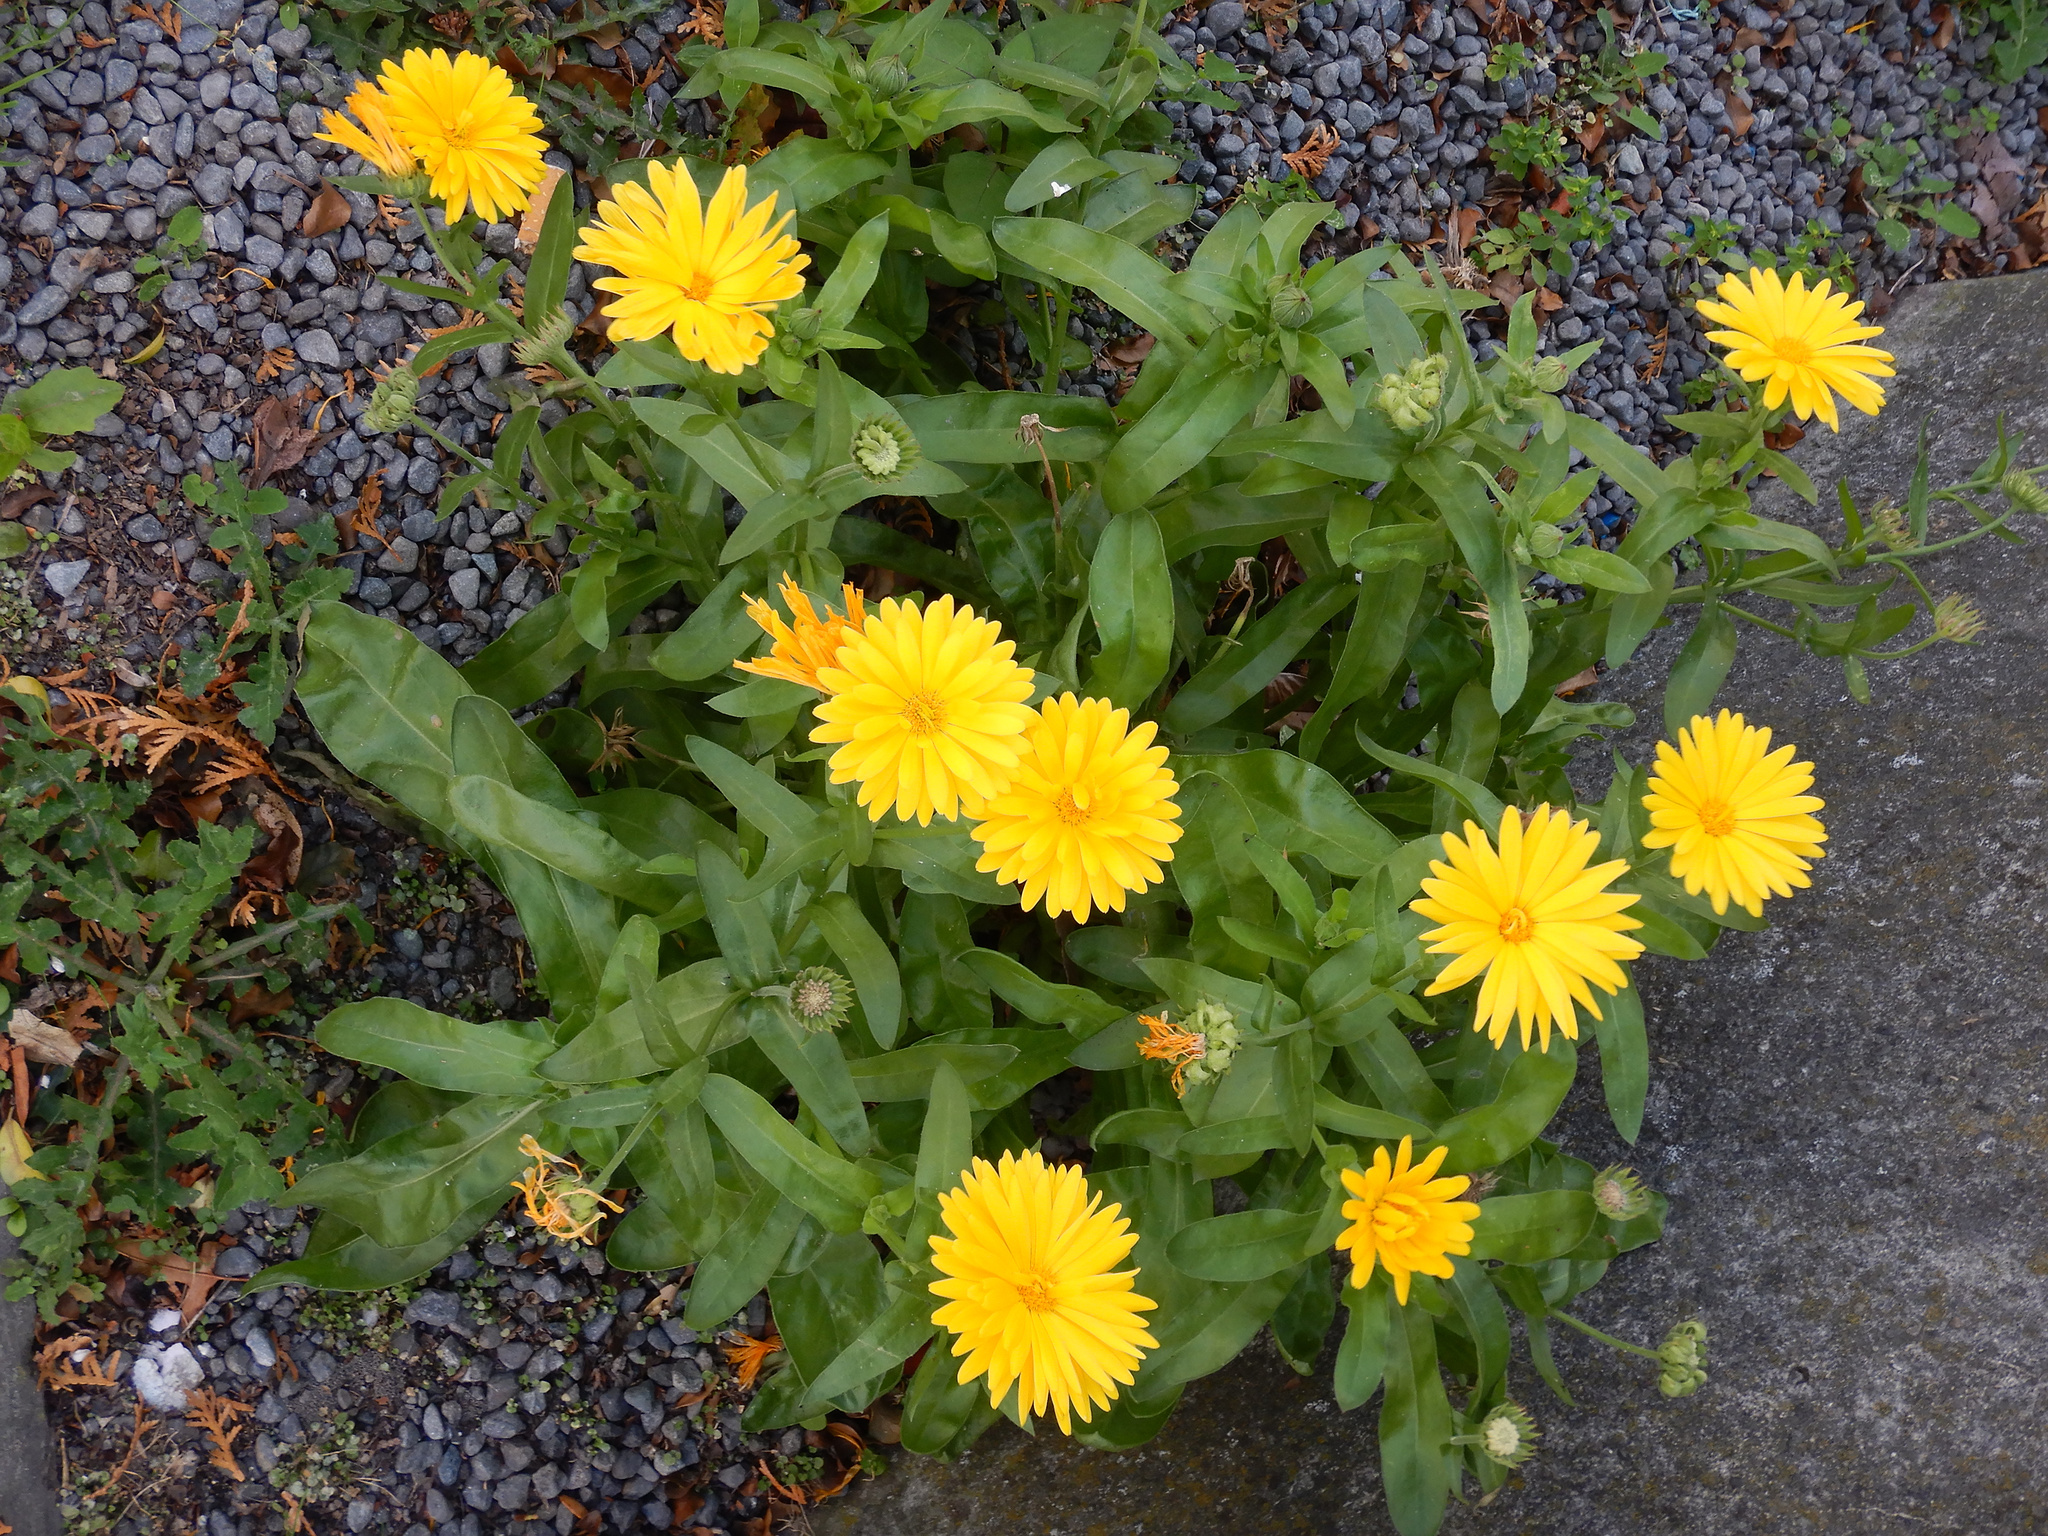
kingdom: Plantae
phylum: Tracheophyta
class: Magnoliopsida
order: Asterales
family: Asteraceae
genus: Calendula
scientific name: Calendula officinalis
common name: Pot marigold
